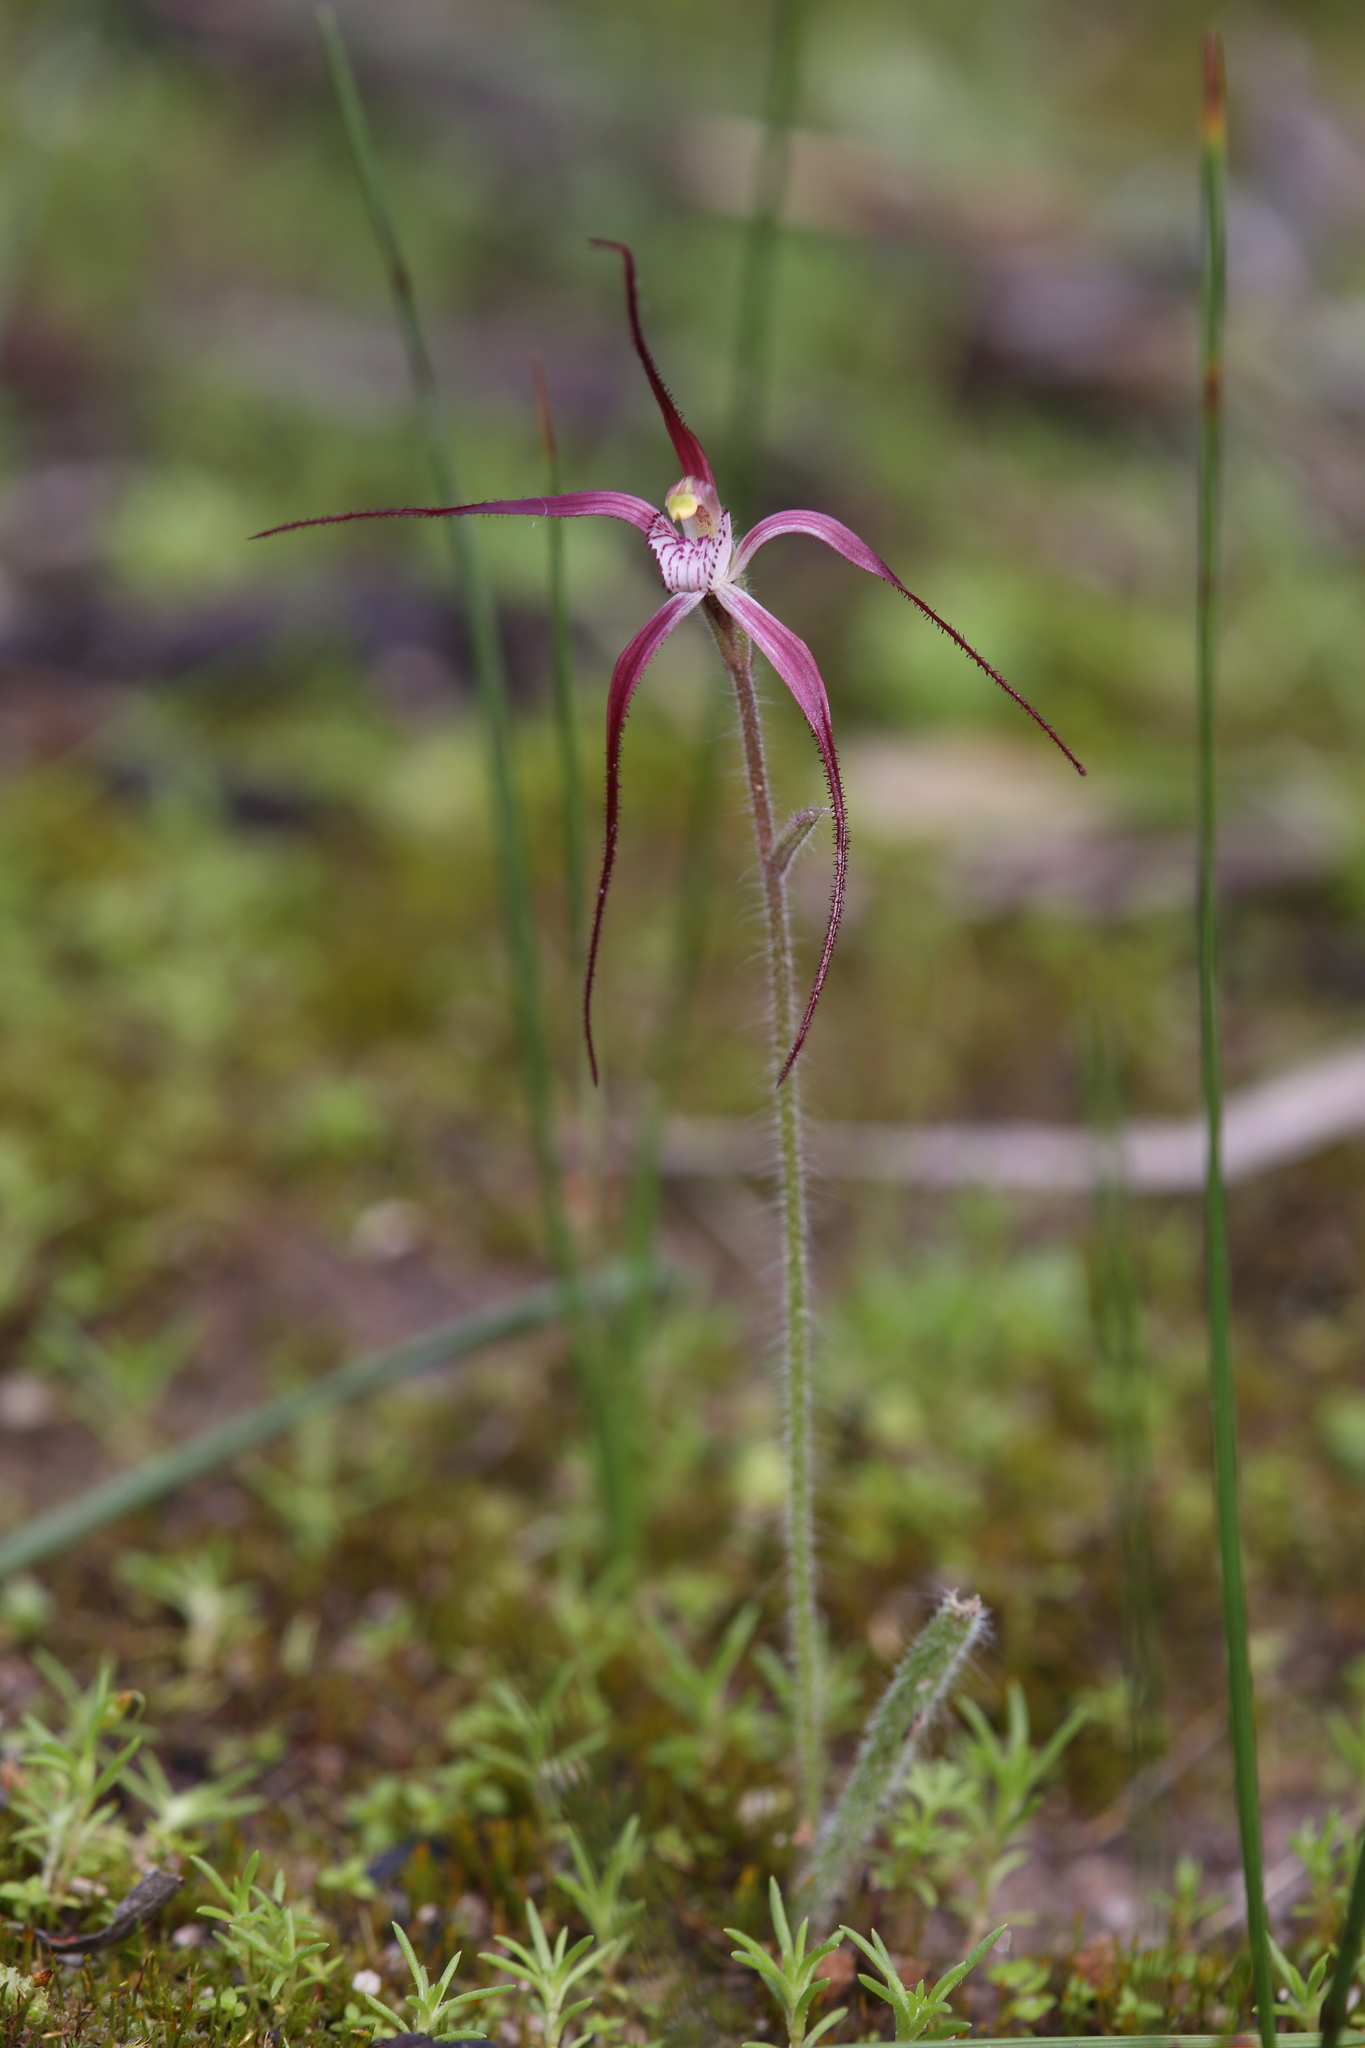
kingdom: Plantae
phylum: Tracheophyta
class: Liliopsida
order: Asparagales
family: Orchidaceae
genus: Caladenia
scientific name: Caladenia footeana
